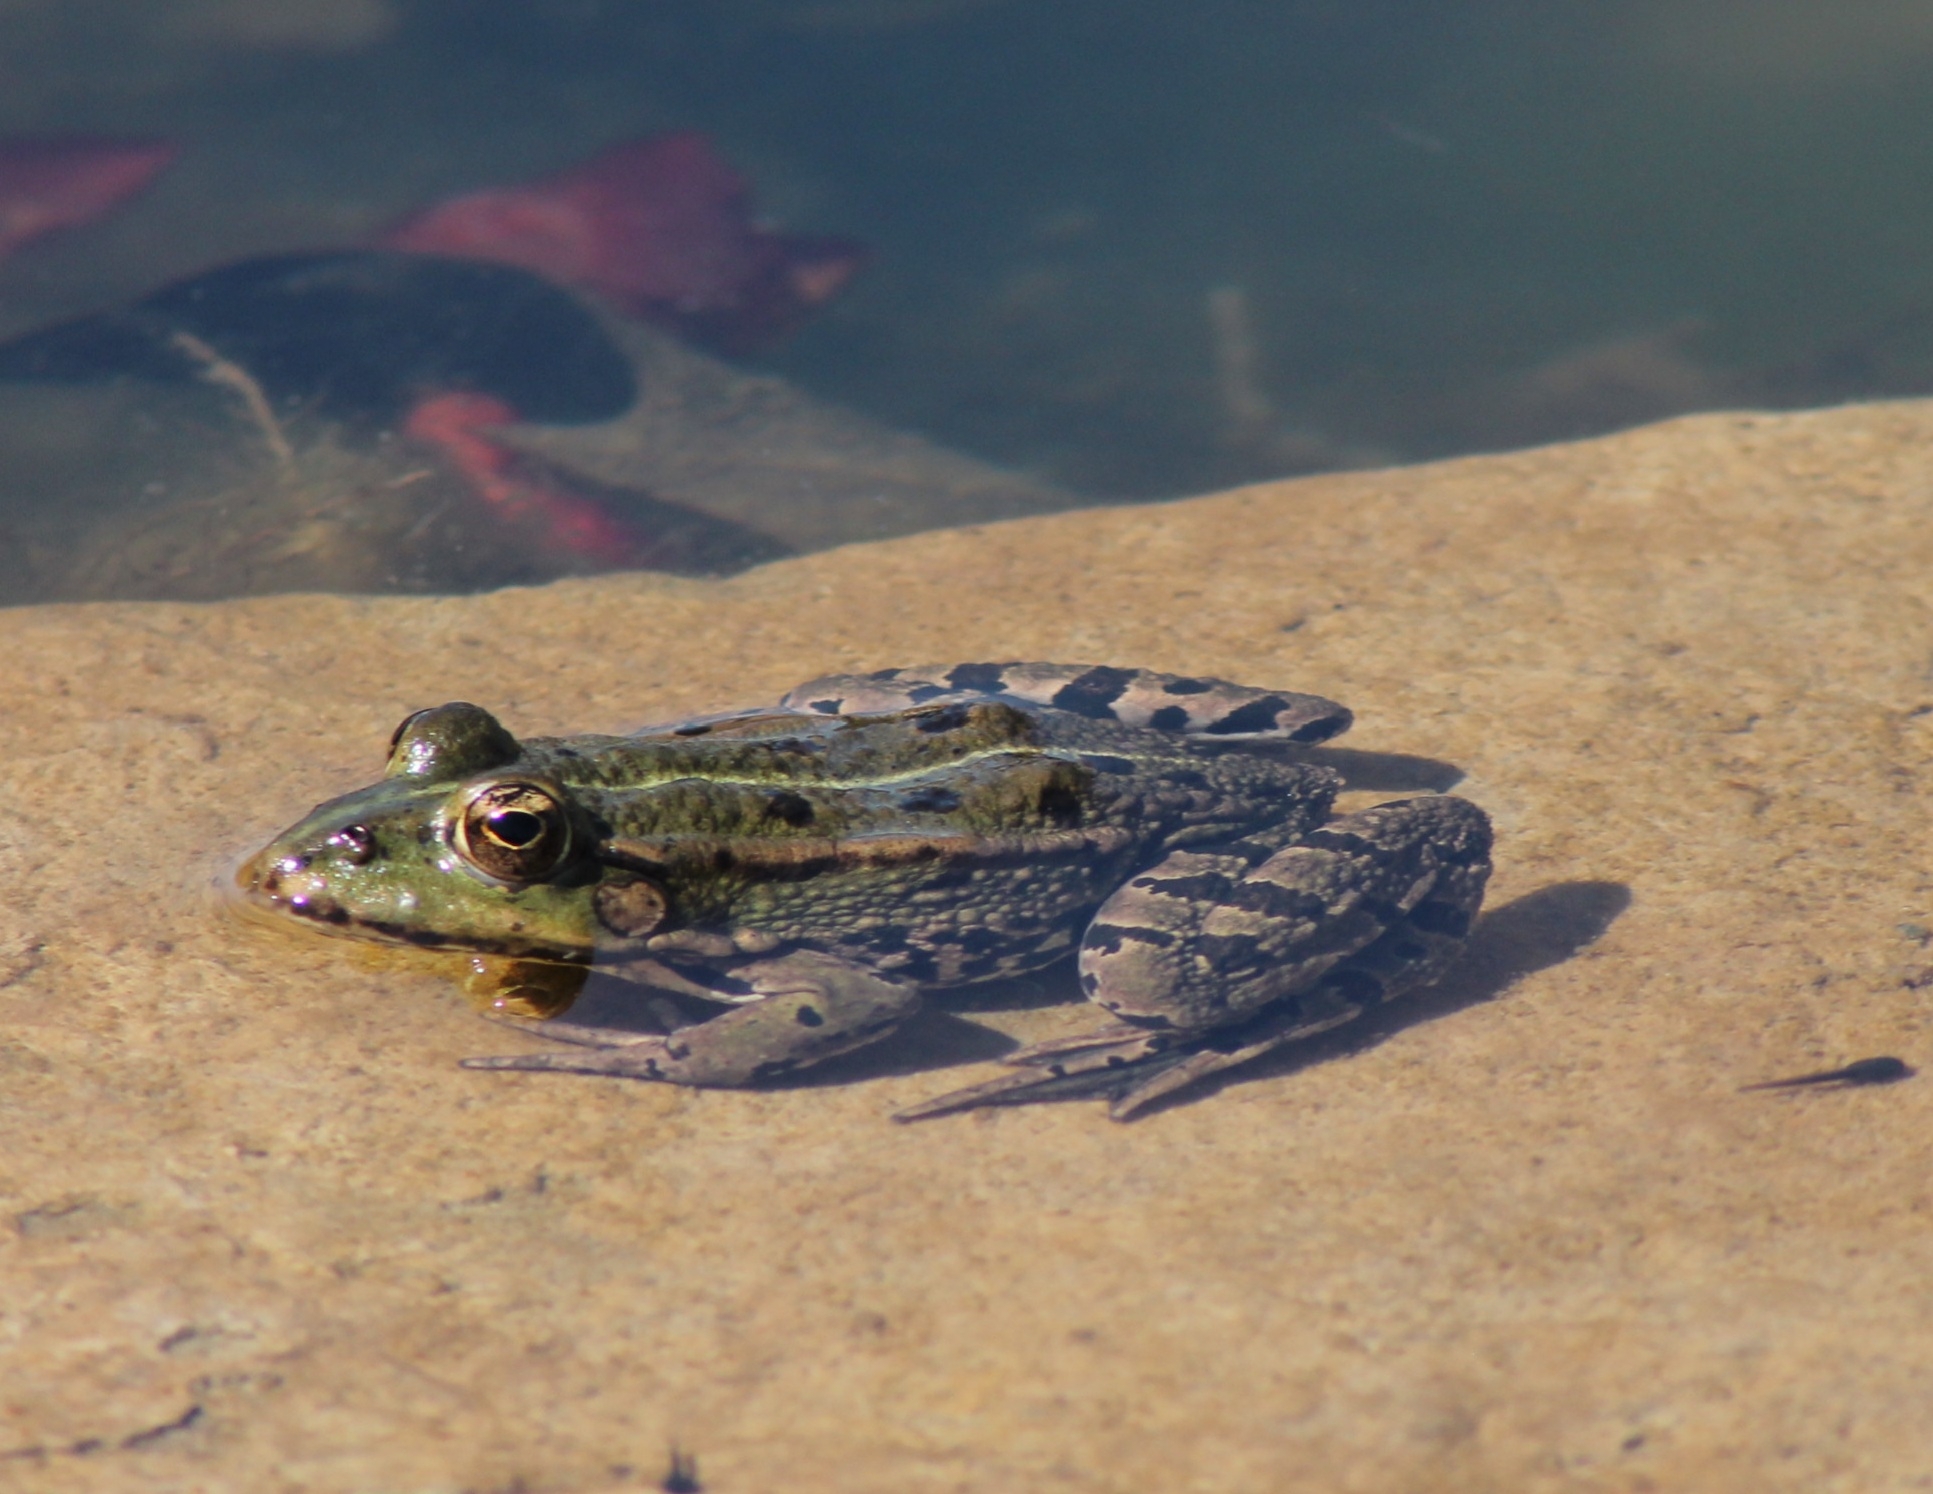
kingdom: Animalia
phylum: Chordata
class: Amphibia
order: Anura
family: Ranidae
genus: Pelophylax
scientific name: Pelophylax
